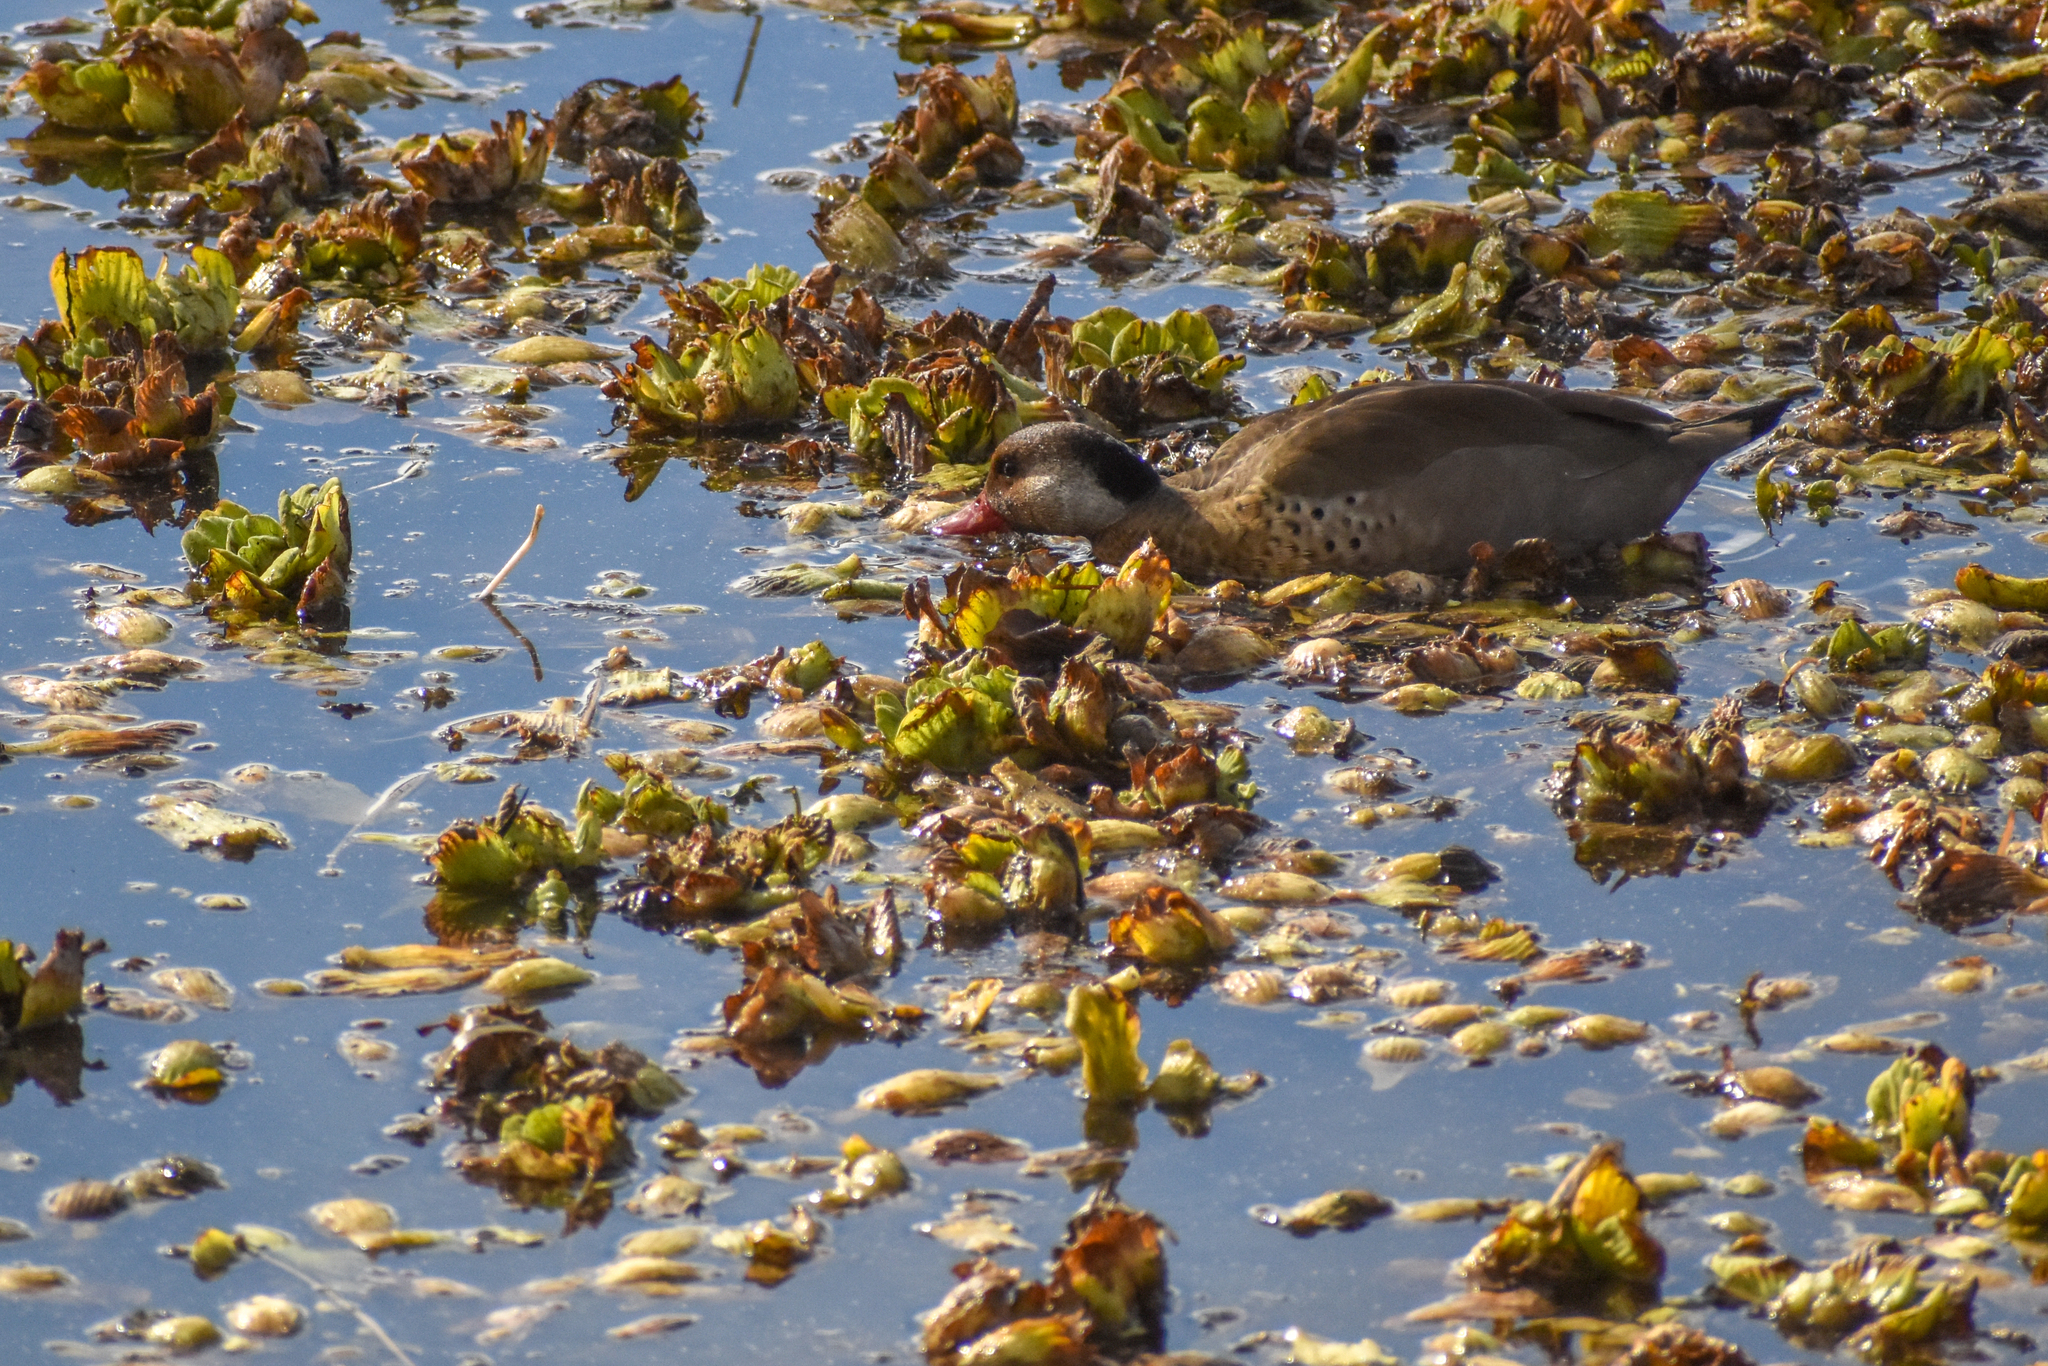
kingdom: Animalia
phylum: Chordata
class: Aves
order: Anseriformes
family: Anatidae
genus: Amazonetta
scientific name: Amazonetta brasiliensis
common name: Brazilian teal
